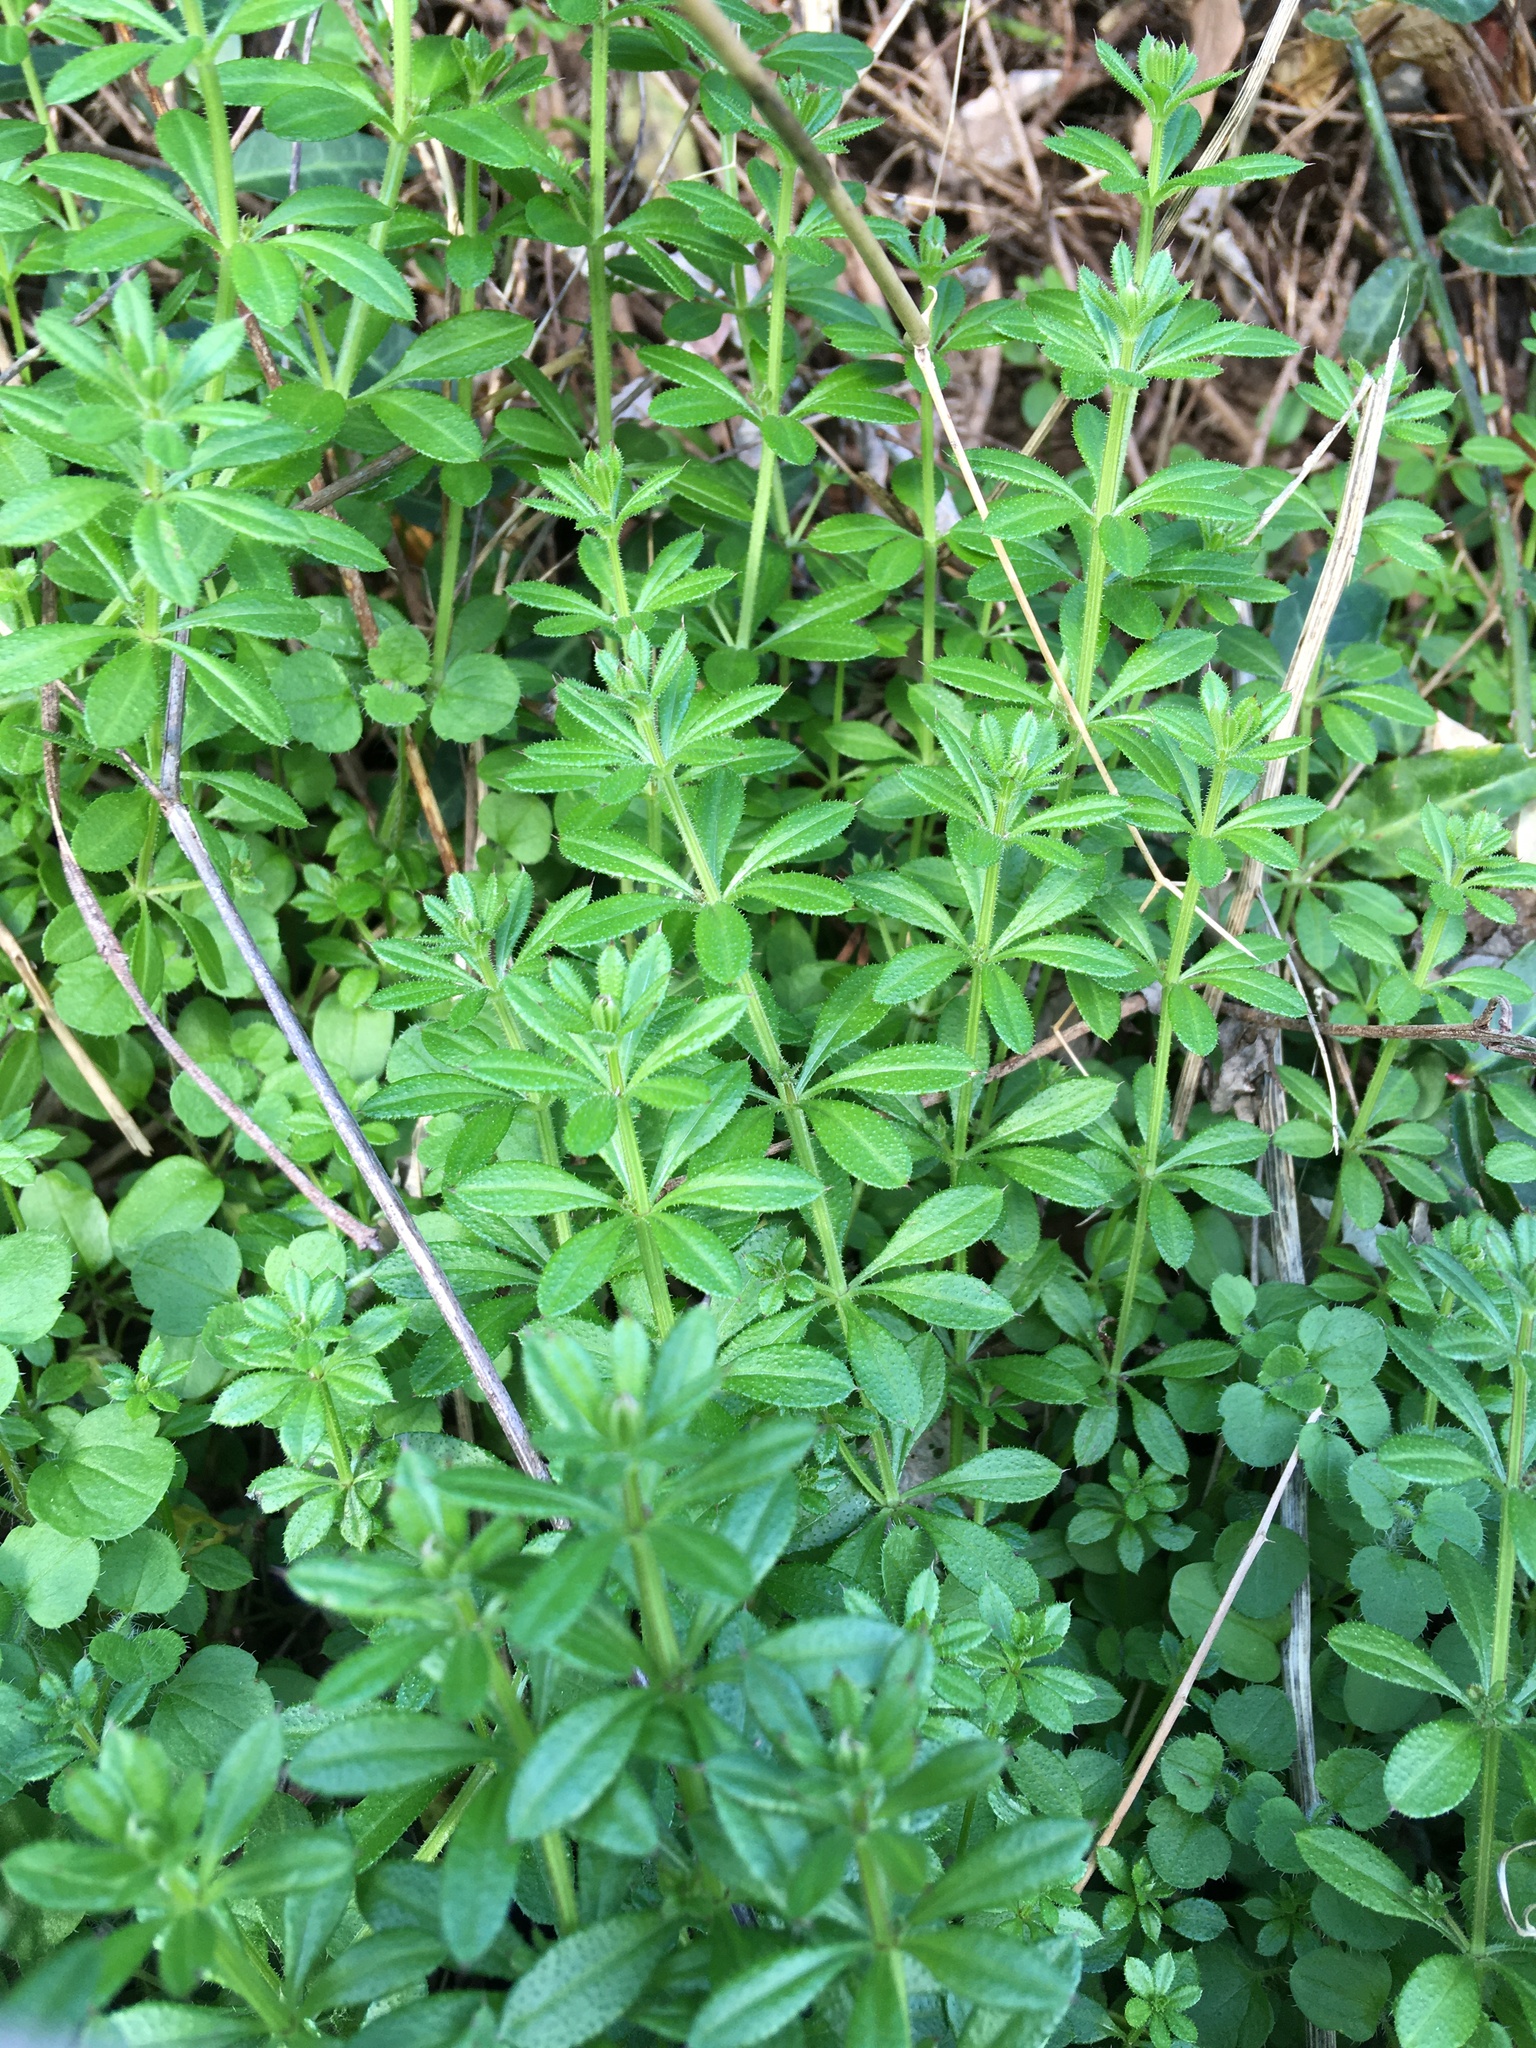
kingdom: Plantae
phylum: Tracheophyta
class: Magnoliopsida
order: Gentianales
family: Rubiaceae
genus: Galium
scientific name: Galium aparine
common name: Cleavers
